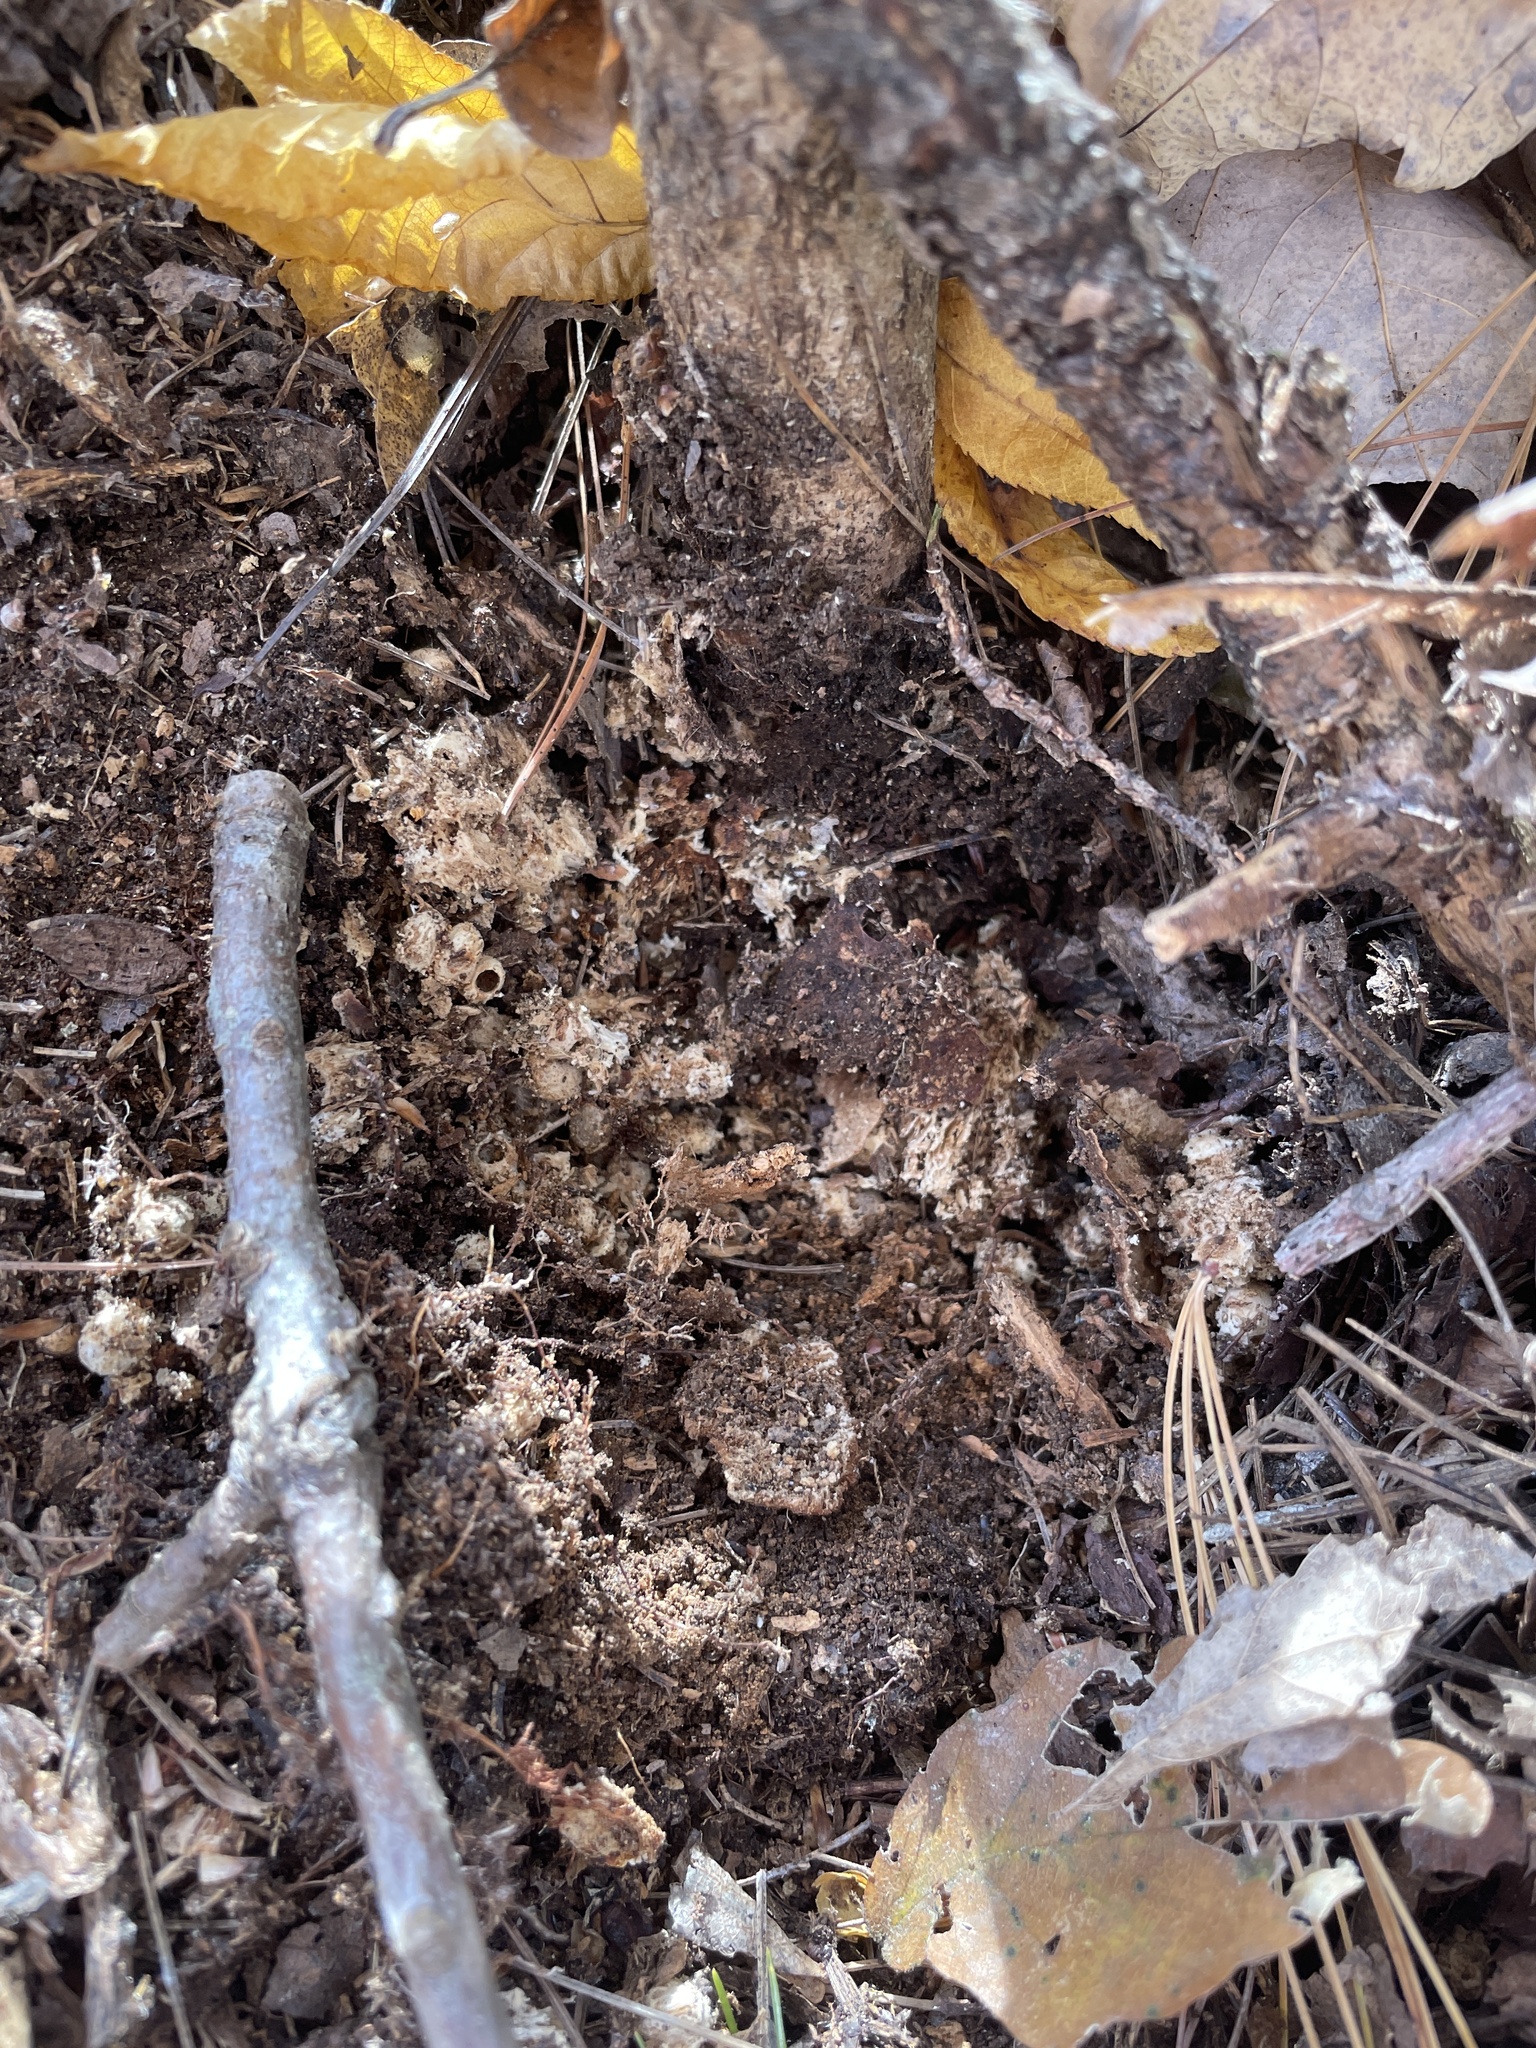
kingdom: Animalia
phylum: Arthropoda
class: Insecta
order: Hymenoptera
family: Cynipidae
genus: Holocynips
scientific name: Holocynips
